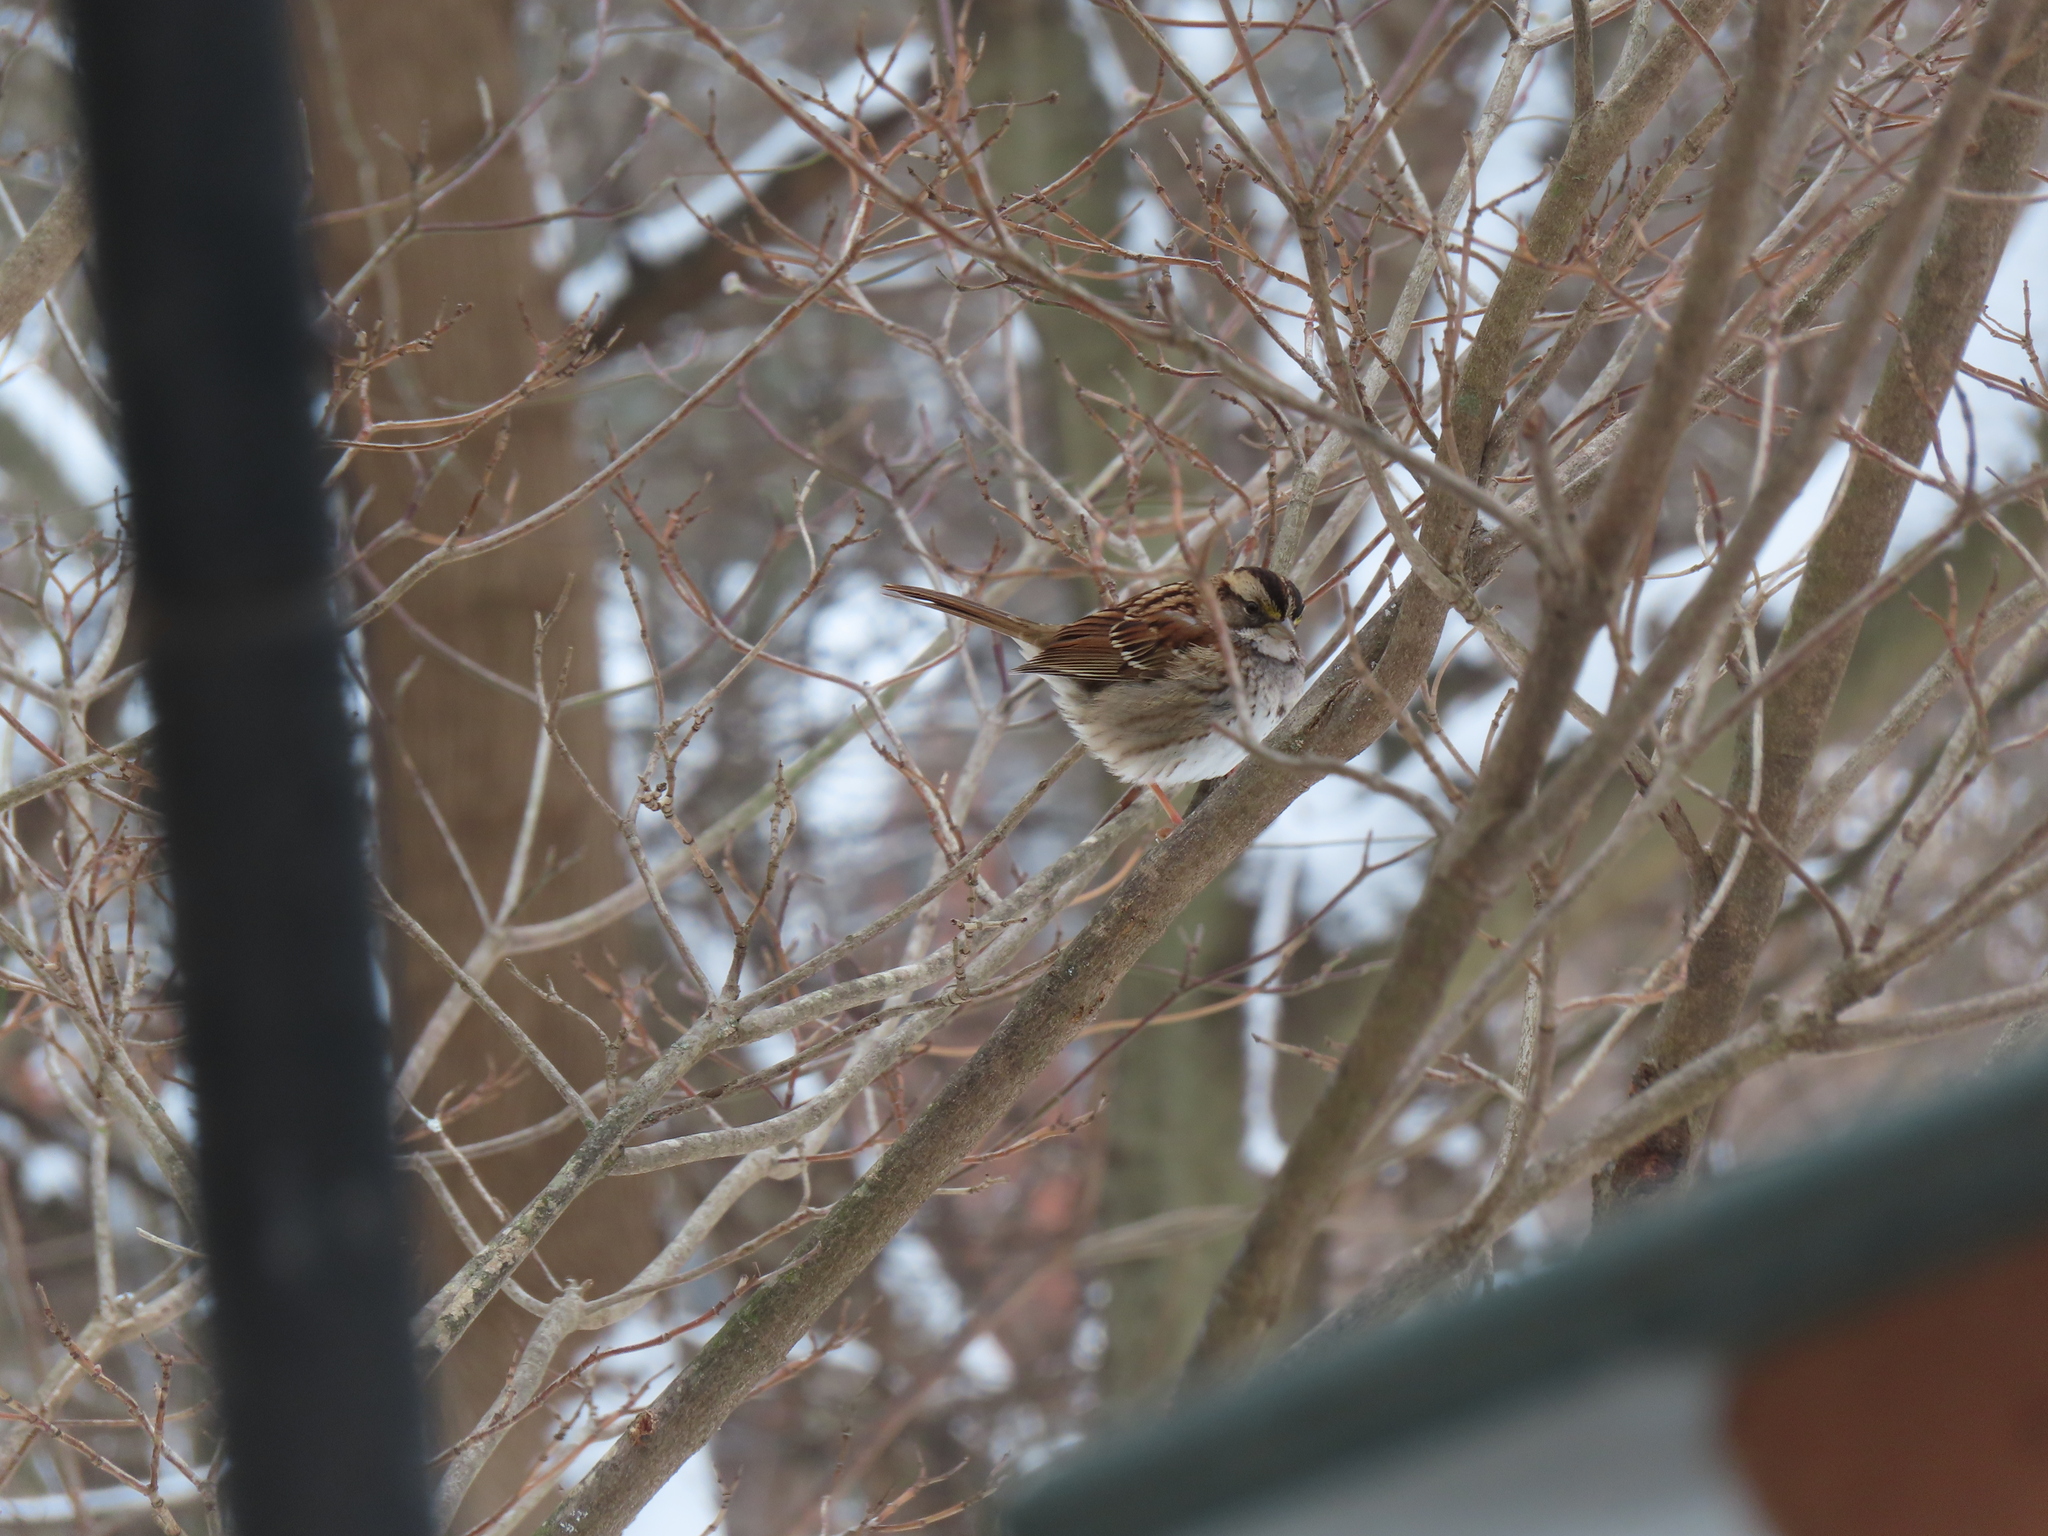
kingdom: Animalia
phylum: Chordata
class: Aves
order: Passeriformes
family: Passerellidae
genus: Zonotrichia
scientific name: Zonotrichia albicollis
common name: White-throated sparrow
